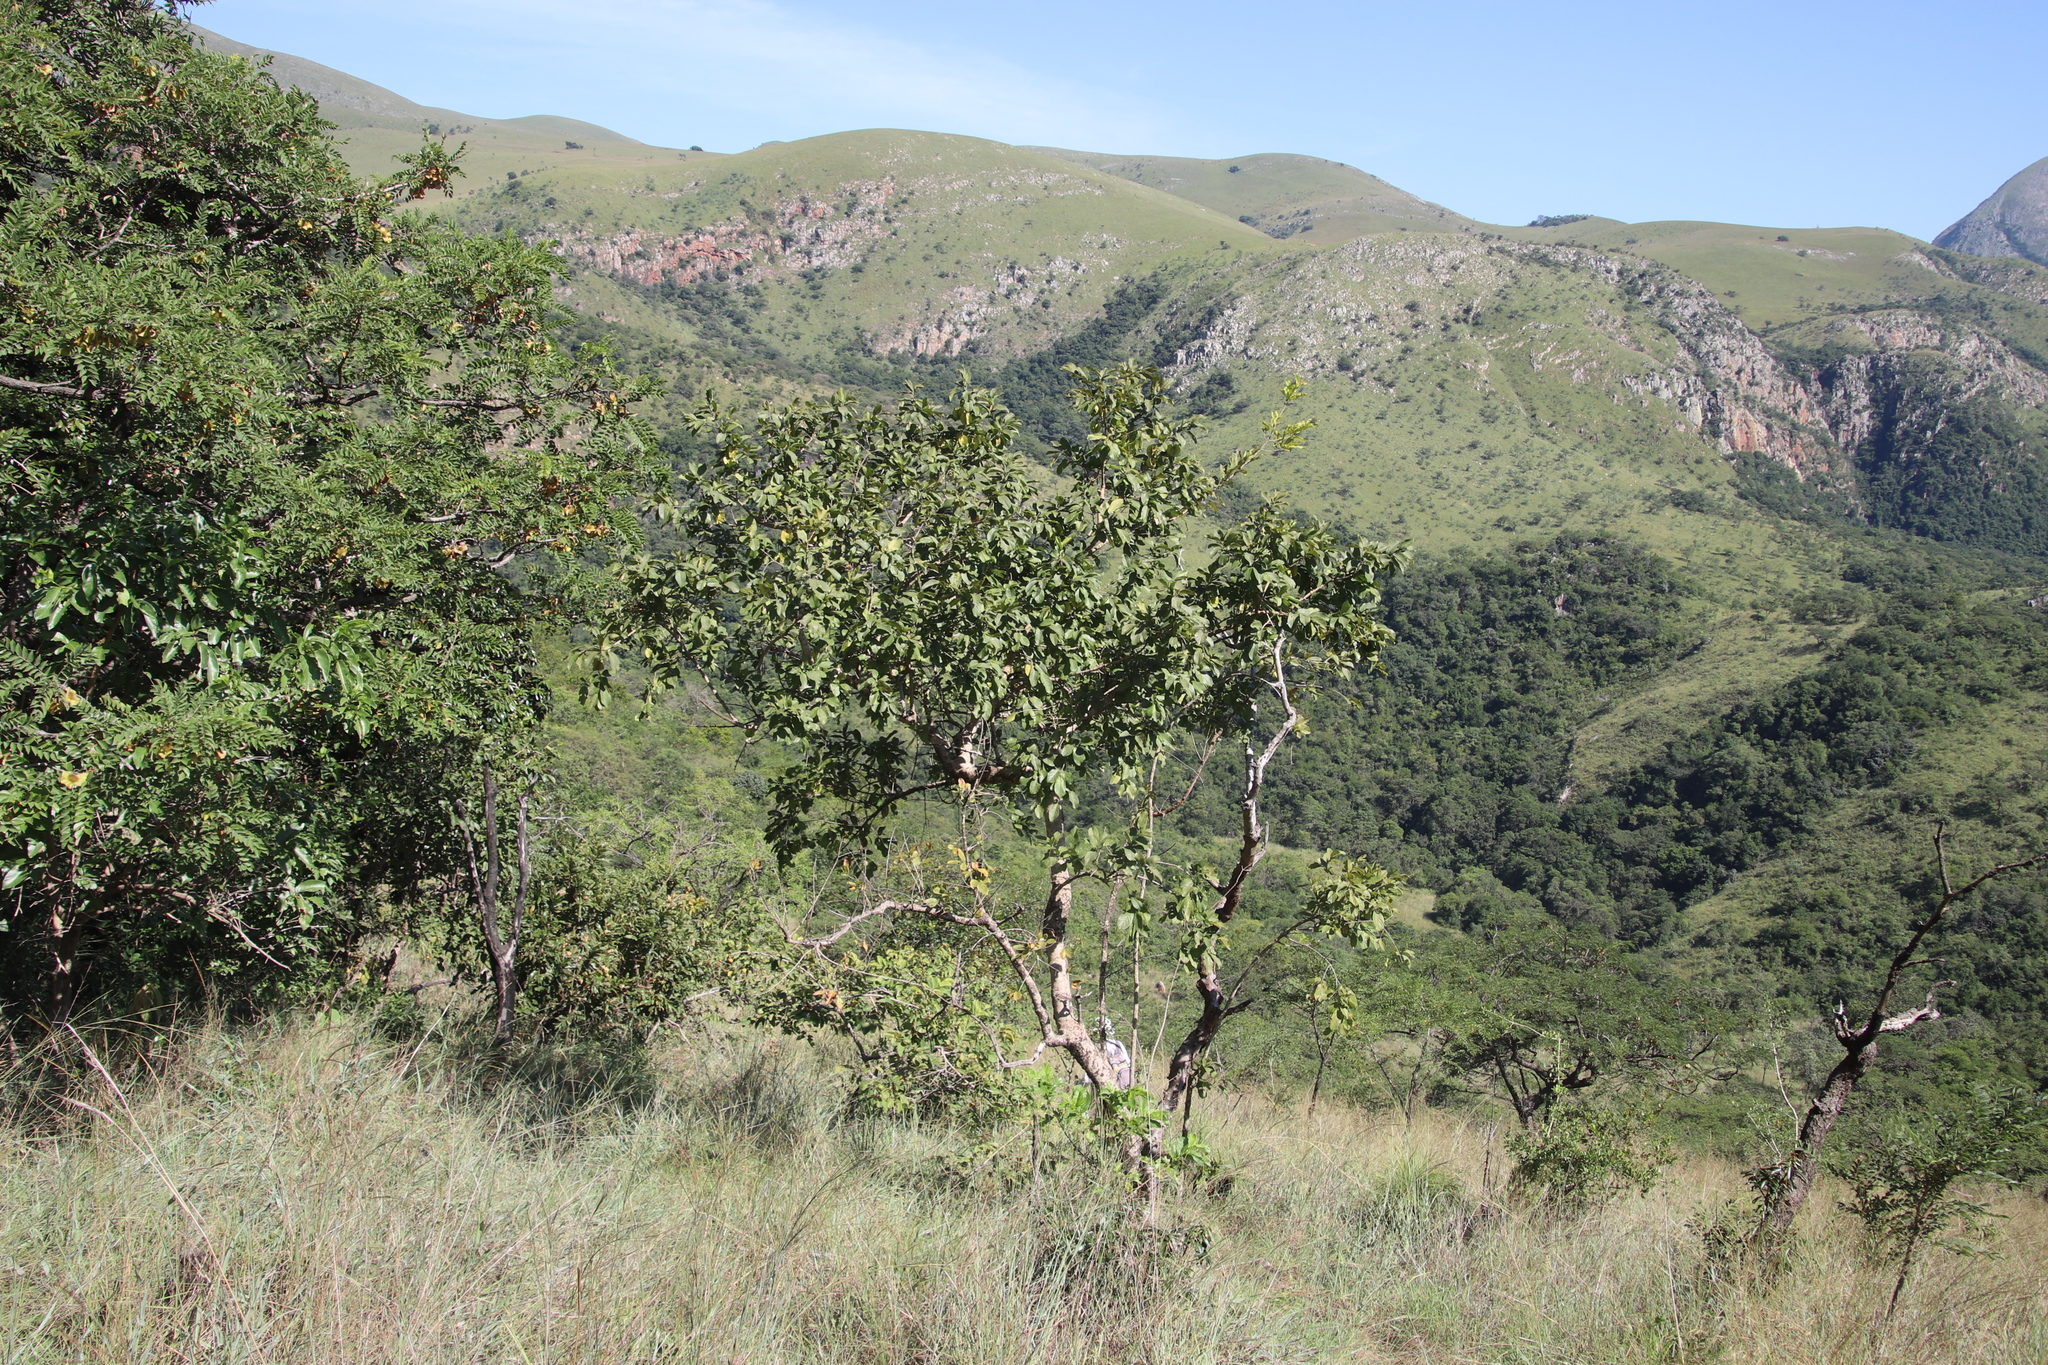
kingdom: Plantae
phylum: Tracheophyta
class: Magnoliopsida
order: Myrtales
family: Combretaceae
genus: Combretum
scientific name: Combretum zeyheri
